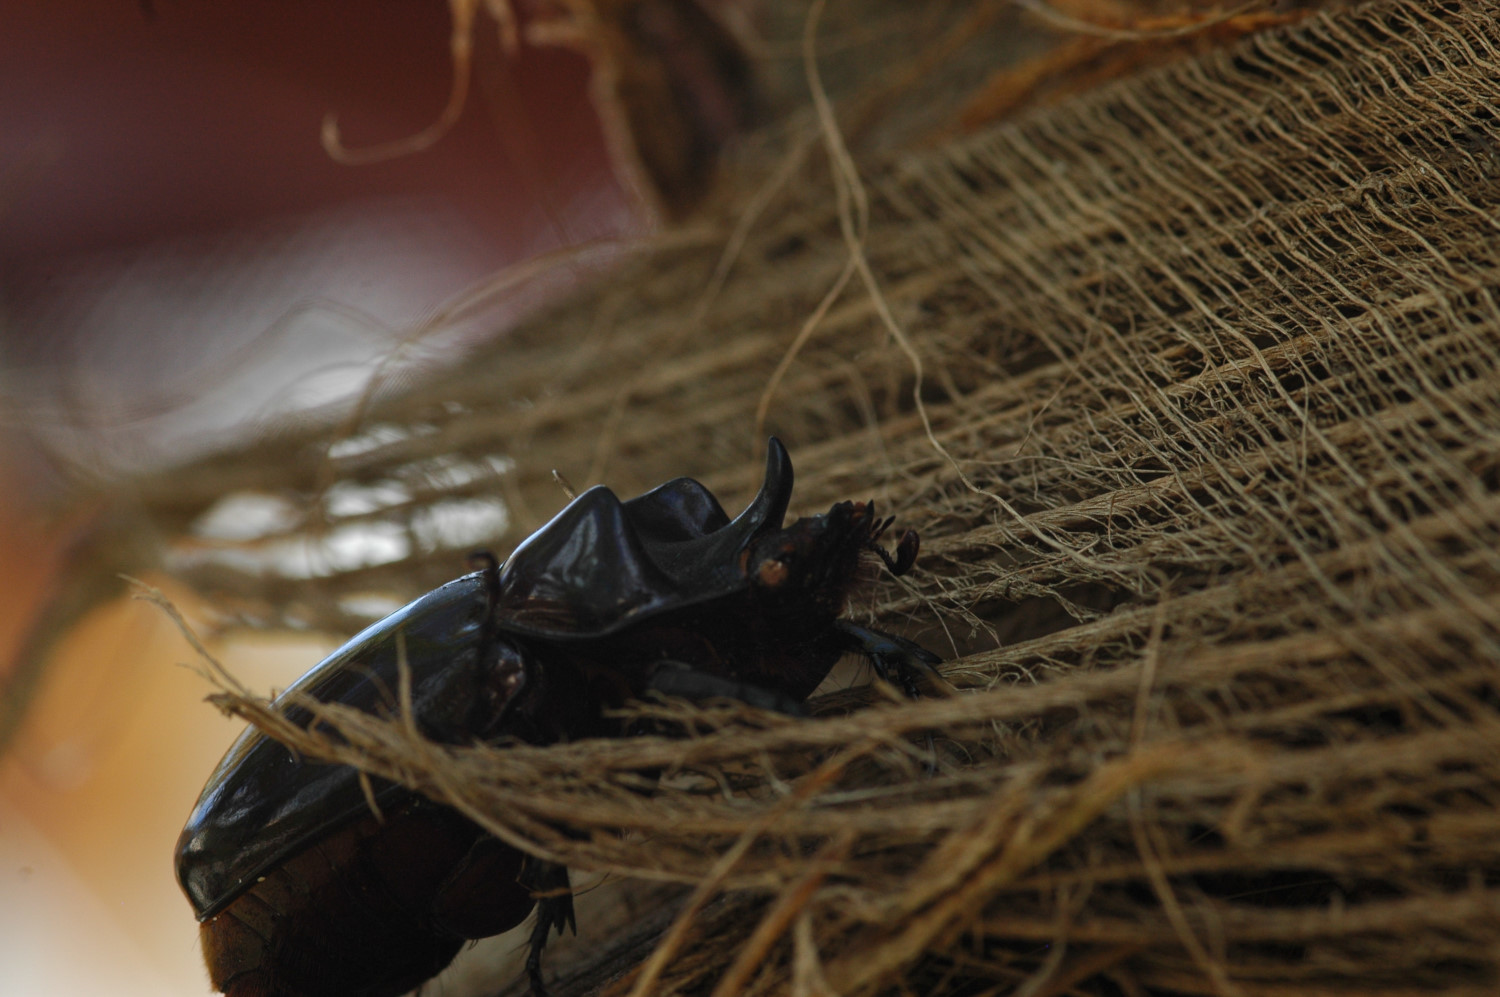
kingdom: Animalia
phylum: Arthropoda
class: Insecta
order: Coleoptera
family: Scarabaeidae
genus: Strategus
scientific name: Strategus oblongus
